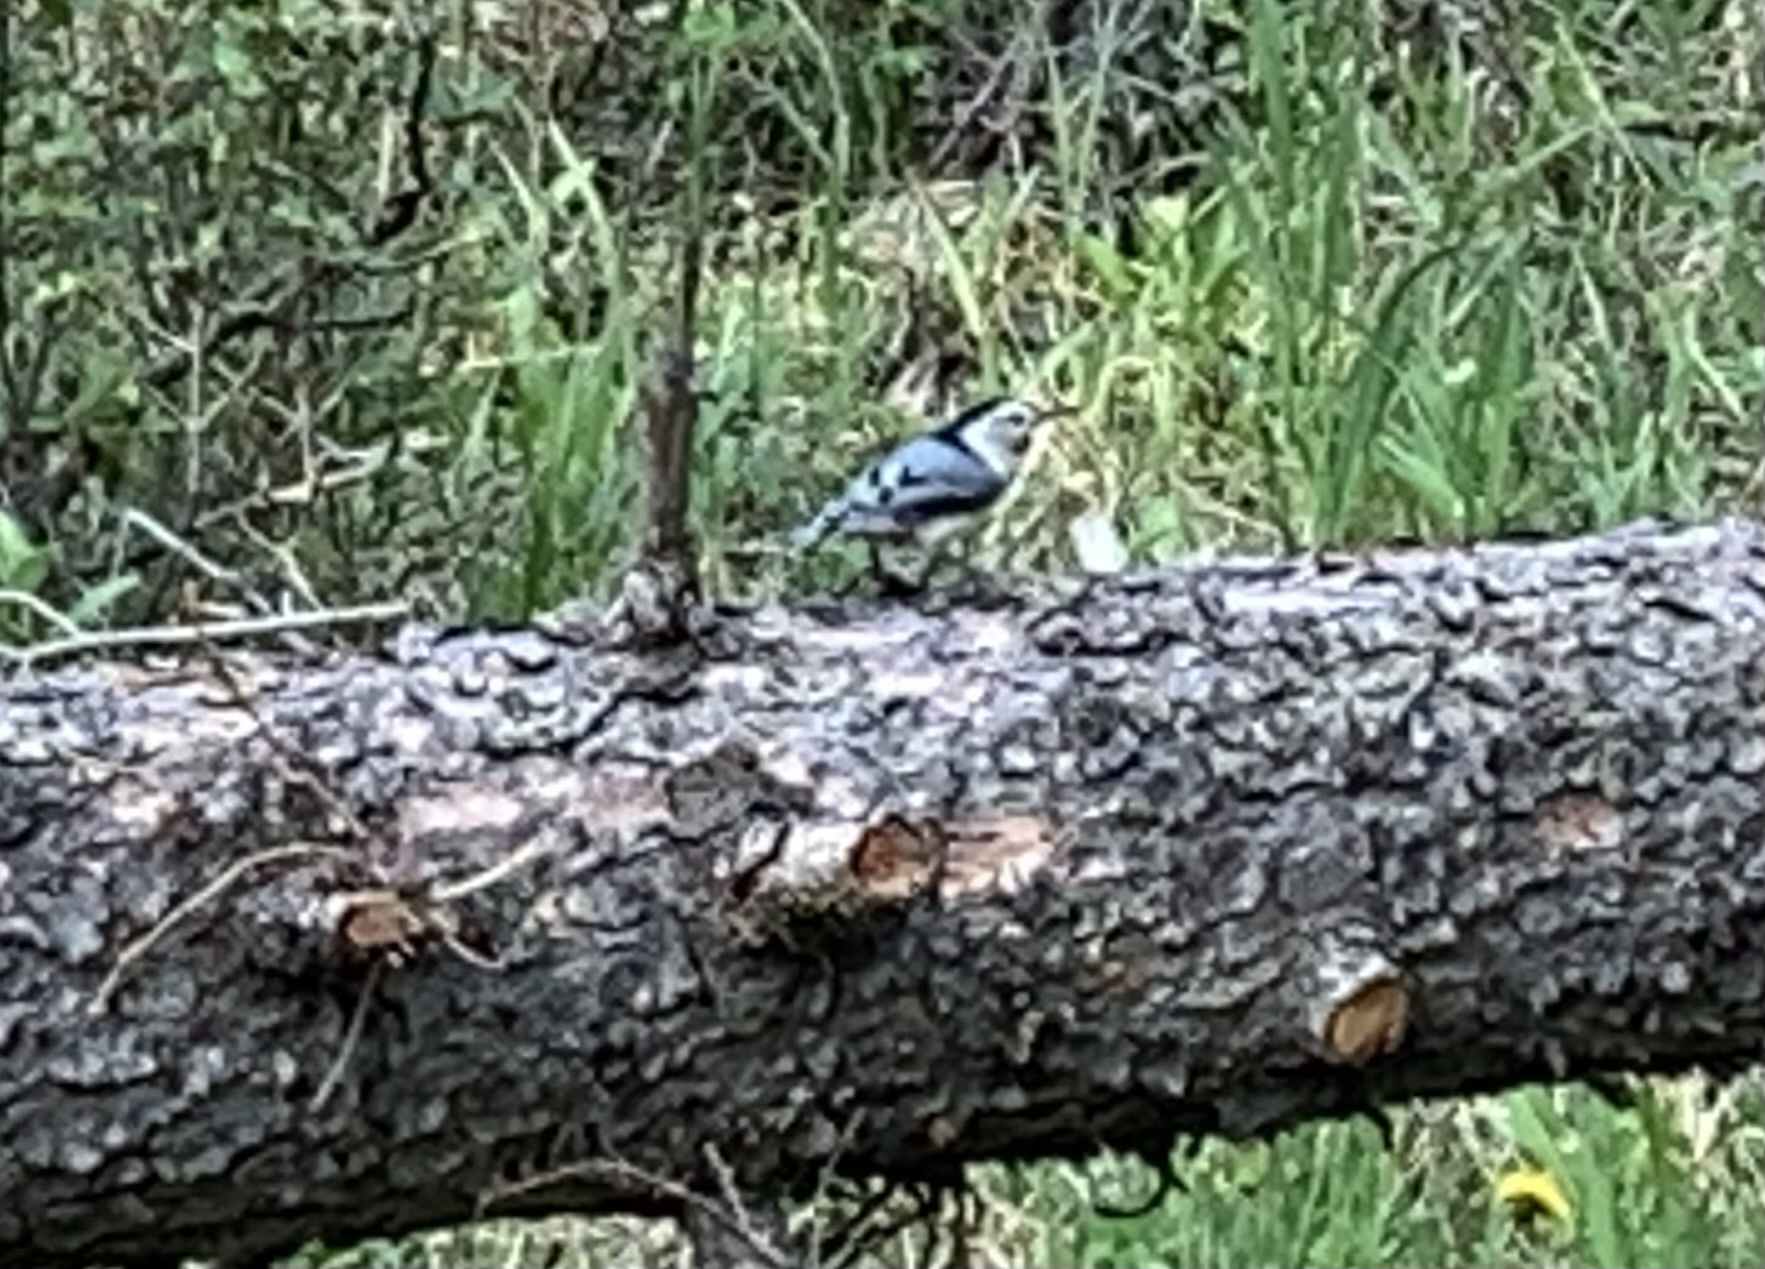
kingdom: Animalia
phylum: Chordata
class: Aves
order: Passeriformes
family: Sittidae
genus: Sitta
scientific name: Sitta carolinensis
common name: White-breasted nuthatch
